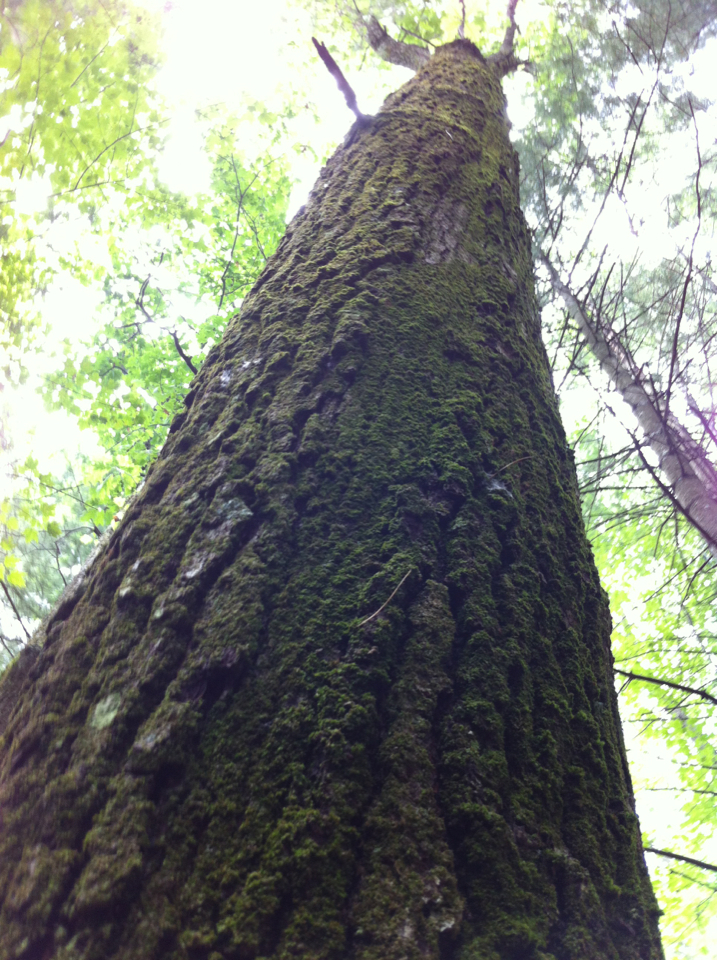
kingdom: Plantae
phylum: Tracheophyta
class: Magnoliopsida
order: Fagales
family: Fagaceae
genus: Quercus
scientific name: Quercus velutina
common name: Black oak
